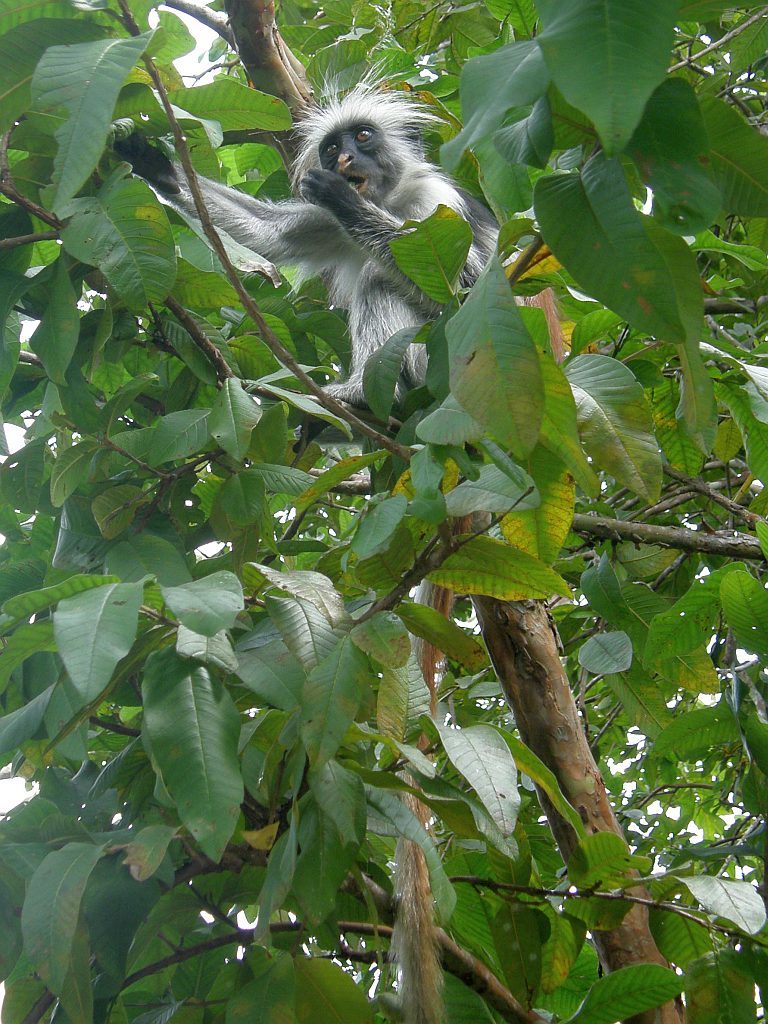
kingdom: Animalia
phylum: Chordata
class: Mammalia
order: Primates
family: Cercopithecidae
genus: Piliocolobus
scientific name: Piliocolobus kirkii
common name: Zanzibar red colobus
